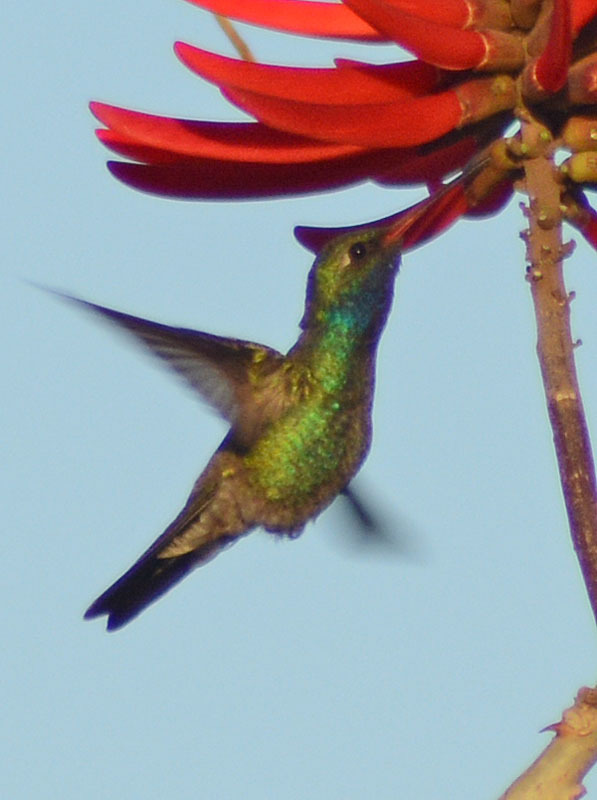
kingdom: Animalia
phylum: Chordata
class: Aves
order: Apodiformes
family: Trochilidae
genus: Cynanthus
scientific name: Cynanthus latirostris
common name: Broad-billed hummingbird
